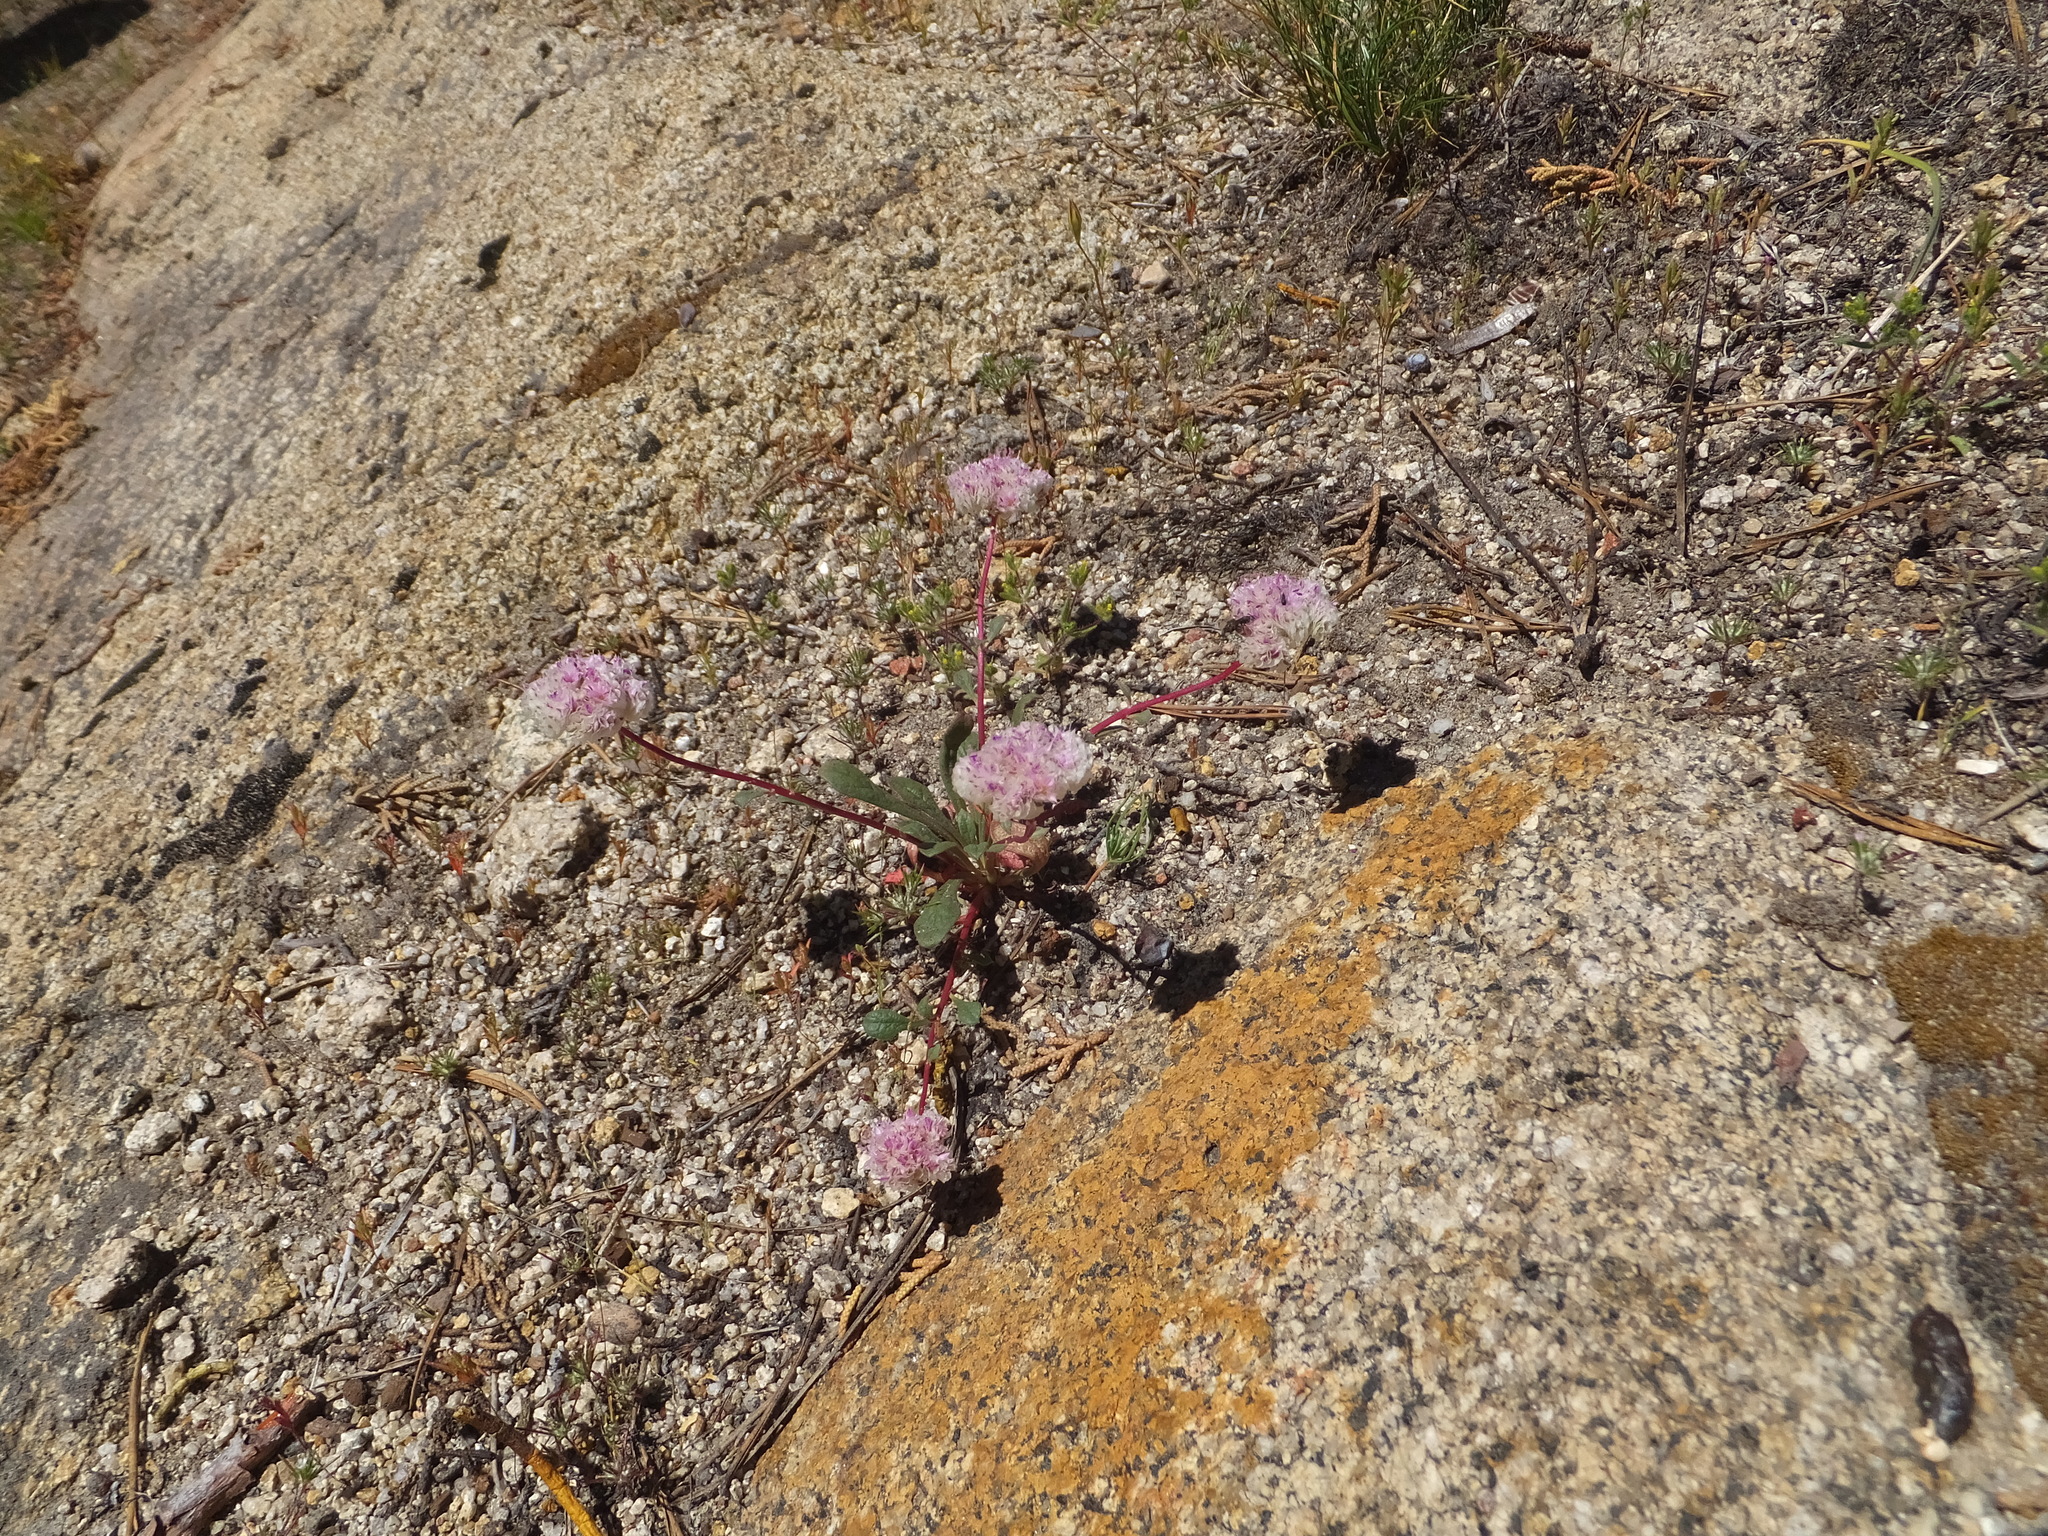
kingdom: Plantae
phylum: Tracheophyta
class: Magnoliopsida
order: Caryophyllales
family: Montiaceae
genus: Calyptridium
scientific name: Calyptridium monospermum
